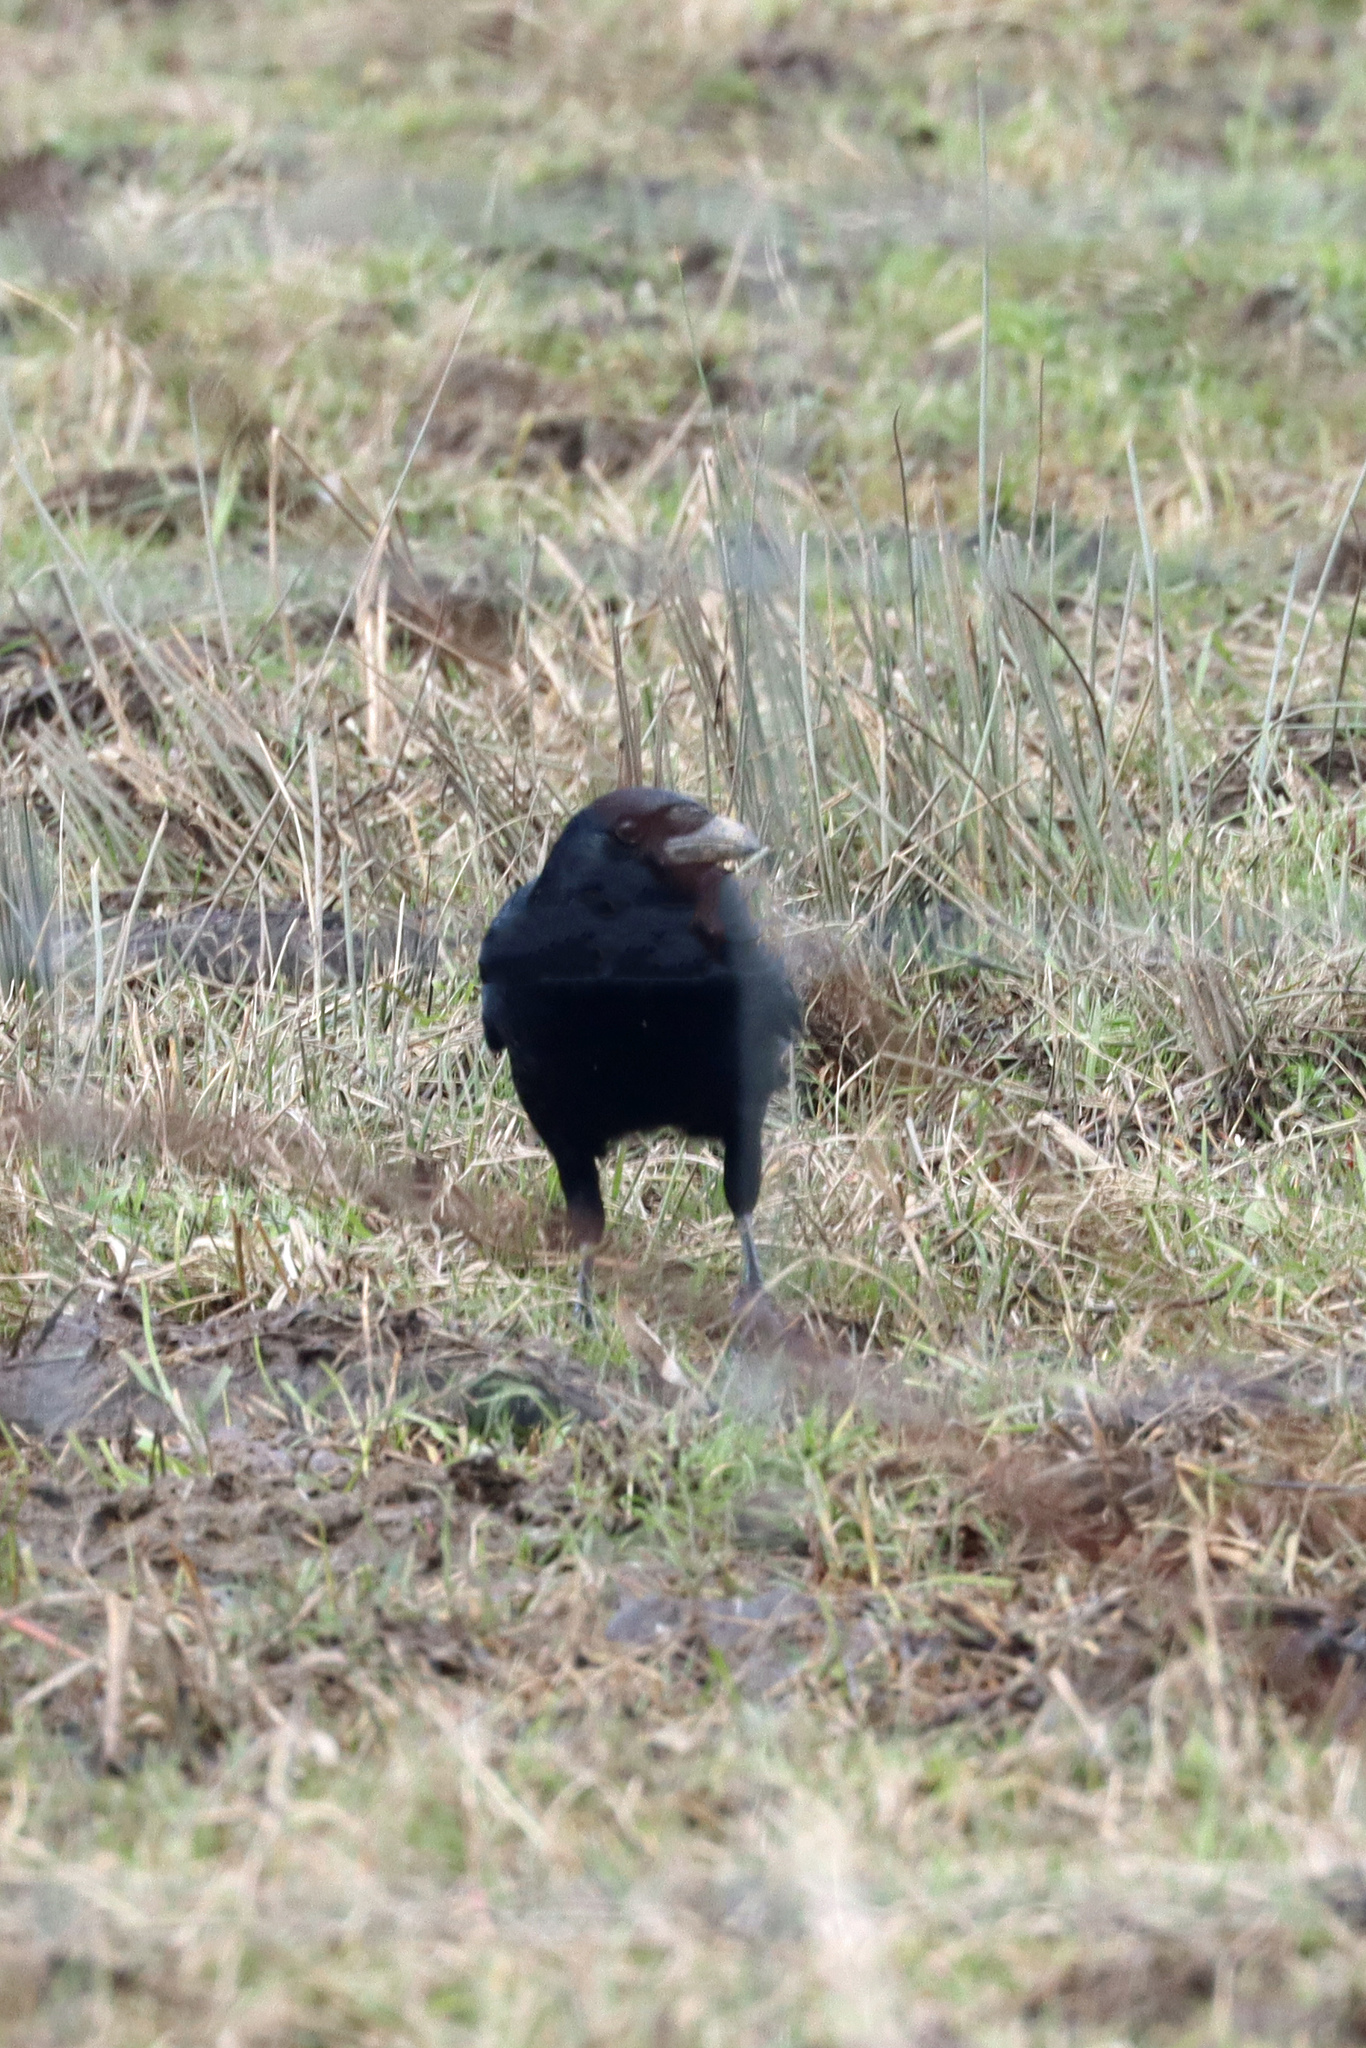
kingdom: Animalia
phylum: Chordata
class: Aves
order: Passeriformes
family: Corvidae
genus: Corvus
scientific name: Corvus corone
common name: Carrion crow
